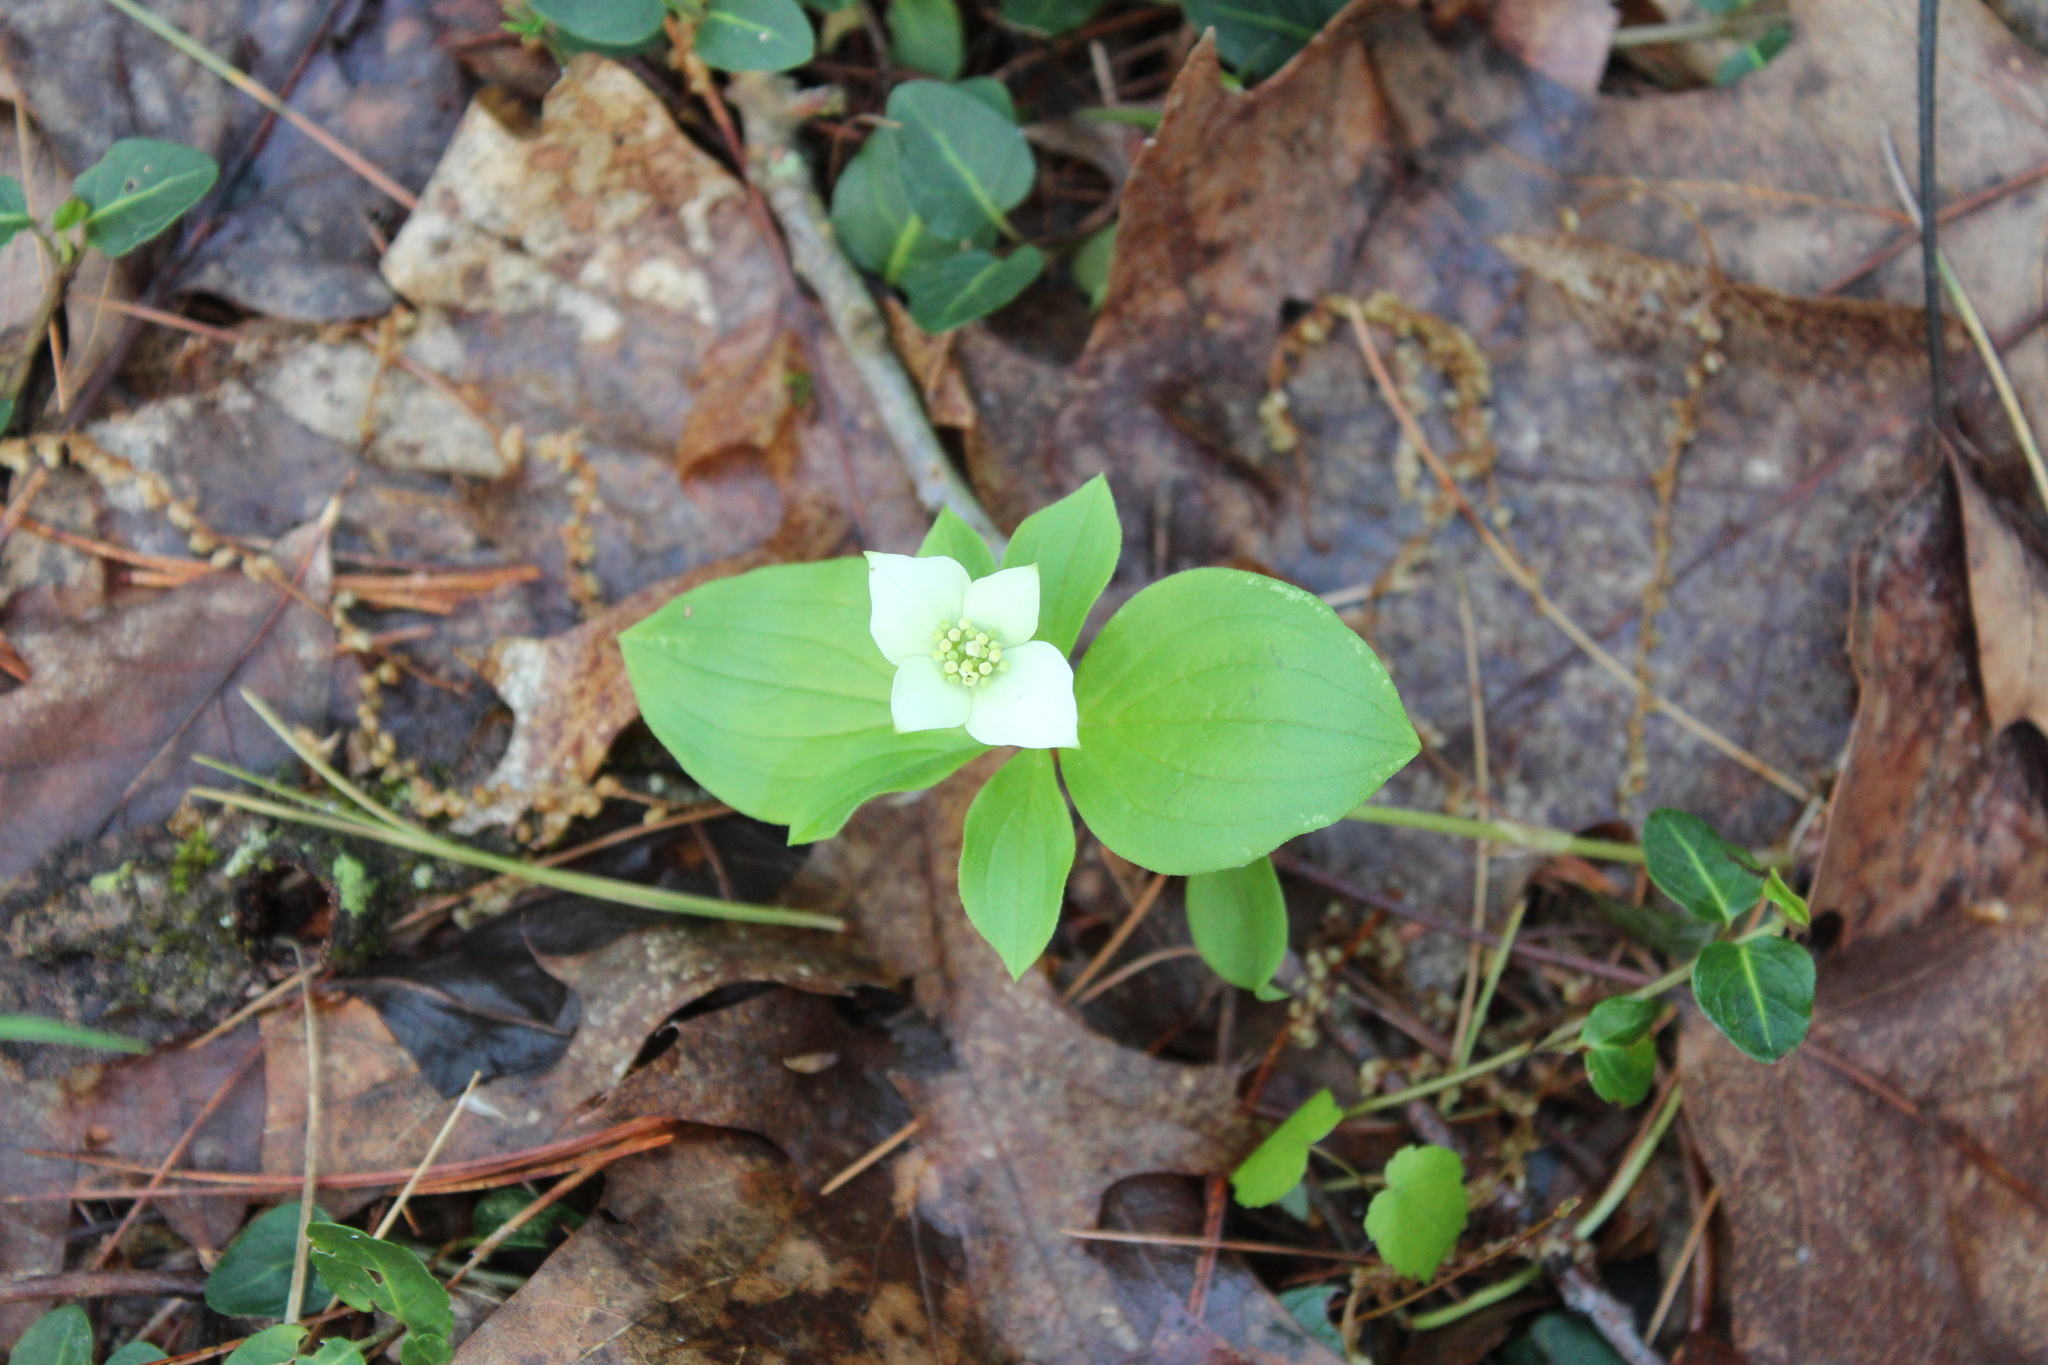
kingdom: Plantae
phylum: Tracheophyta
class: Magnoliopsida
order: Cornales
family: Cornaceae
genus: Cornus
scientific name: Cornus canadensis
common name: Creeping dogwood
